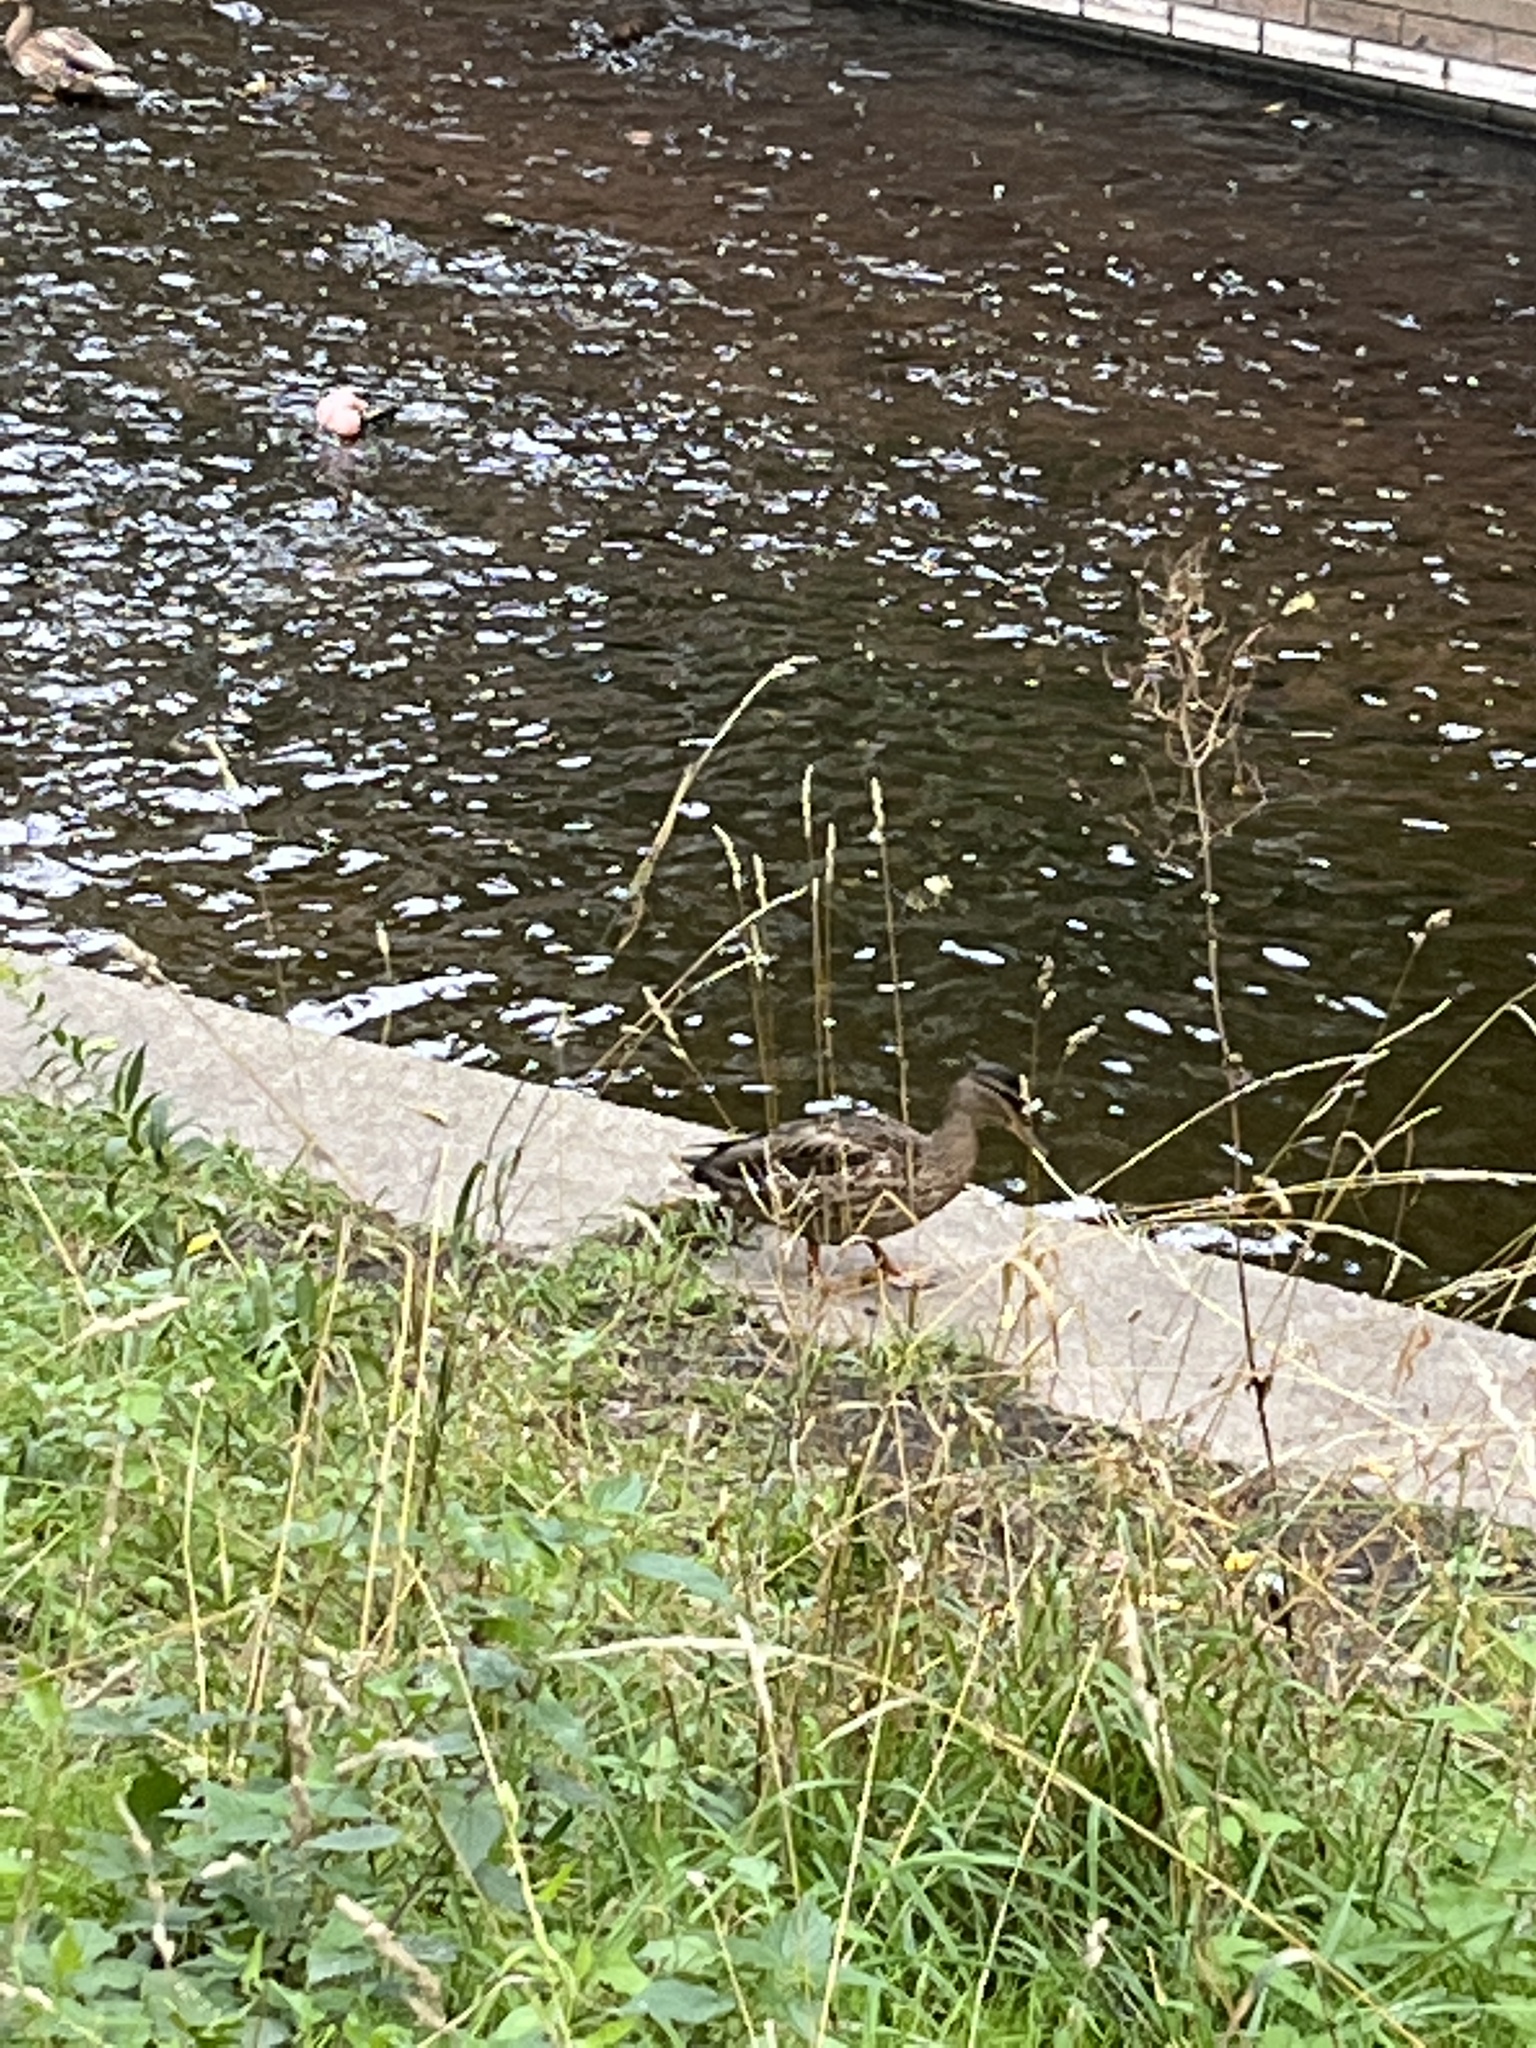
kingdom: Animalia
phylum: Chordata
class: Aves
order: Anseriformes
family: Anatidae
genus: Anas
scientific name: Anas platyrhynchos
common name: Mallard
